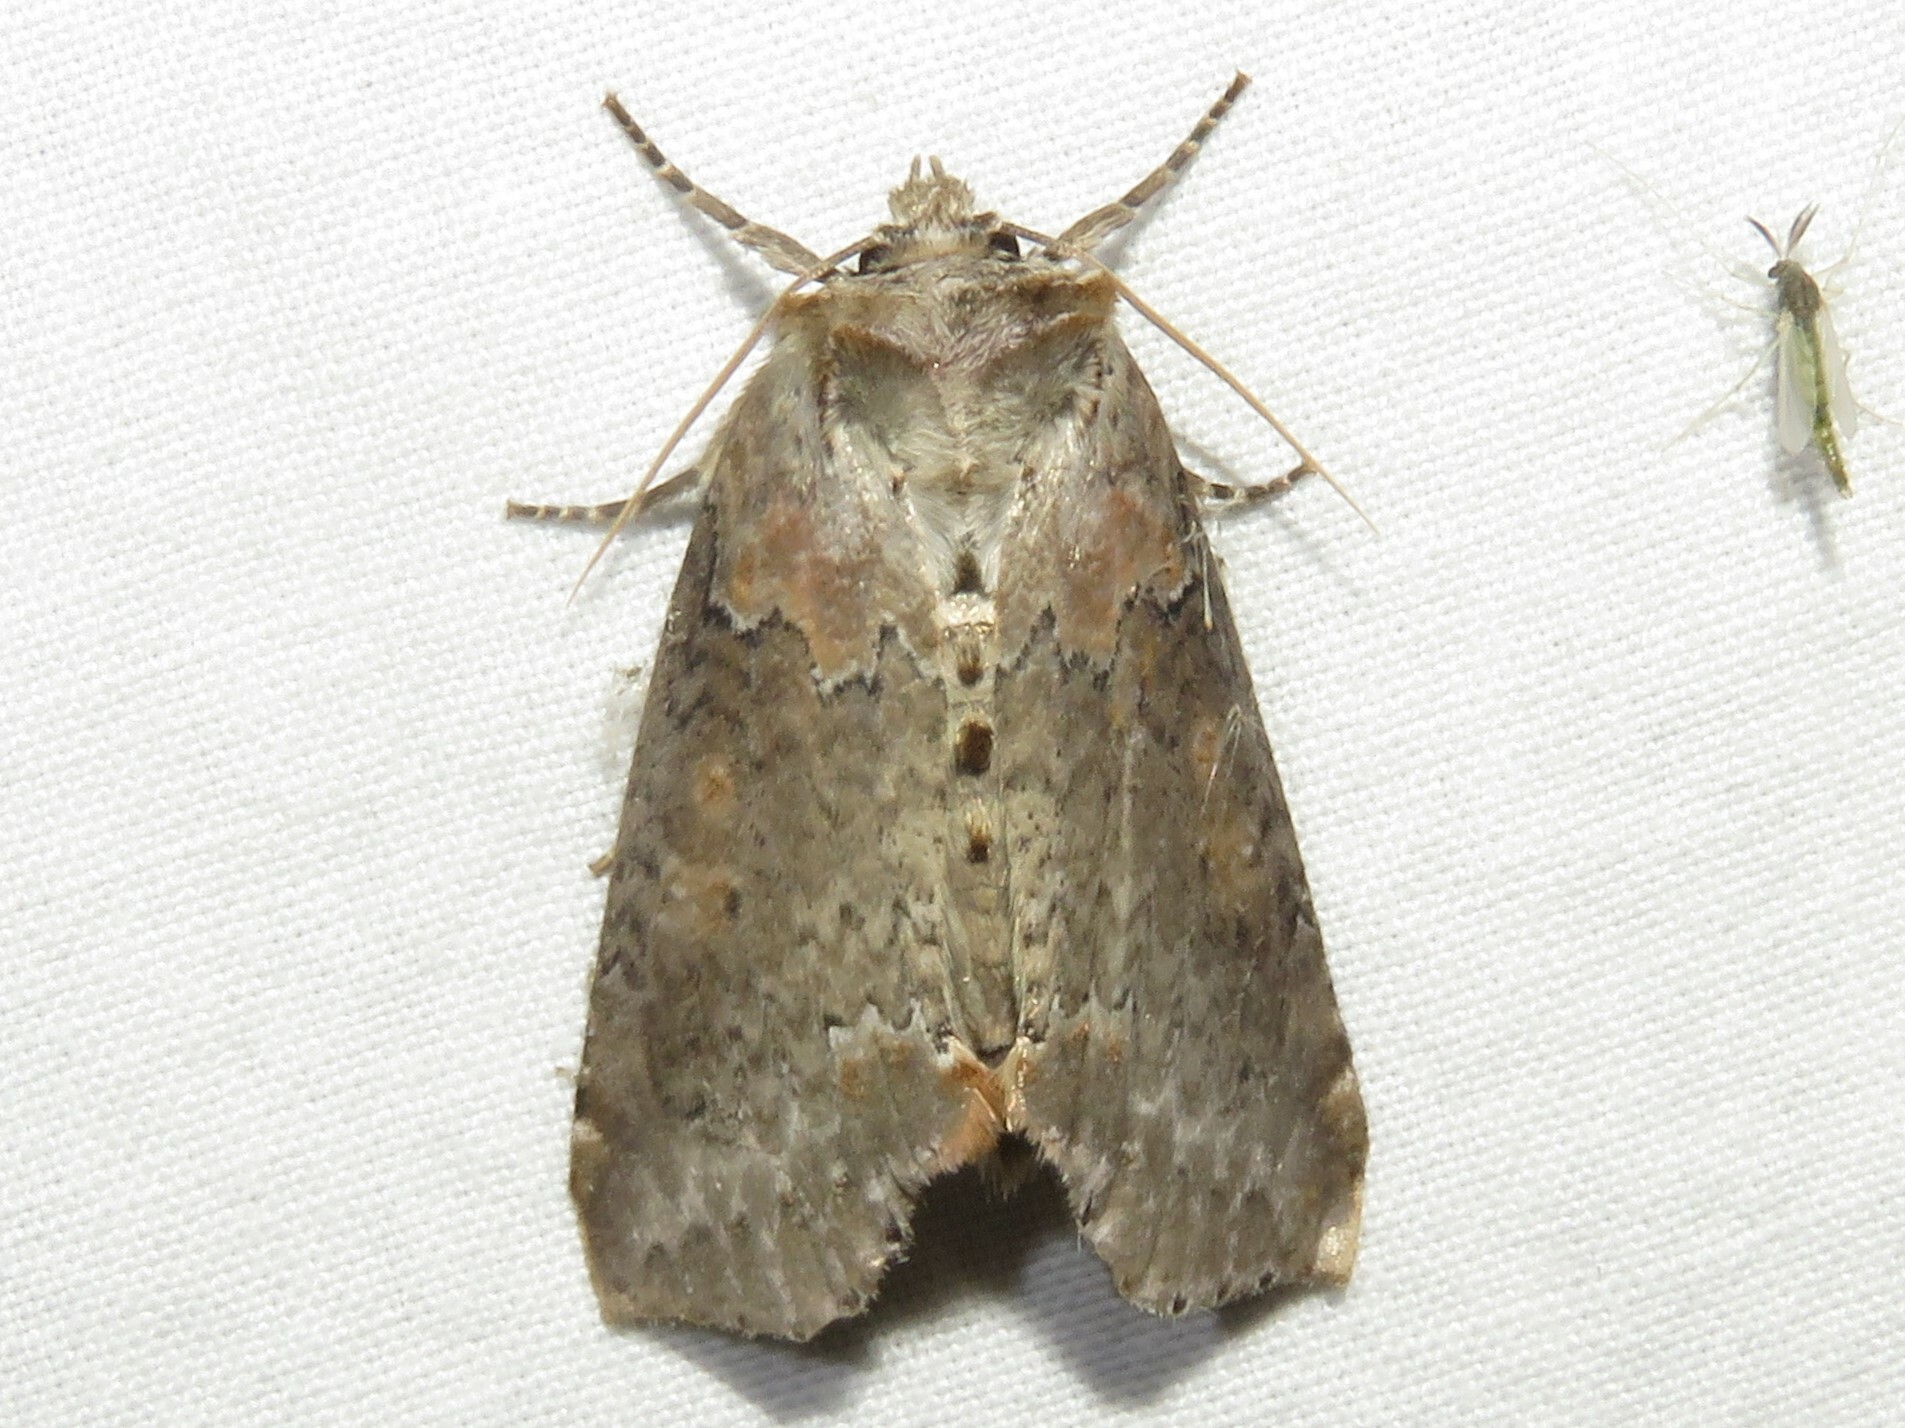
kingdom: Animalia
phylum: Arthropoda
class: Insecta
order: Lepidoptera
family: Drepanidae
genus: Pseudothyatira
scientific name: Pseudothyatira cymatophoroides
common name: Tufted thyatirid moth
